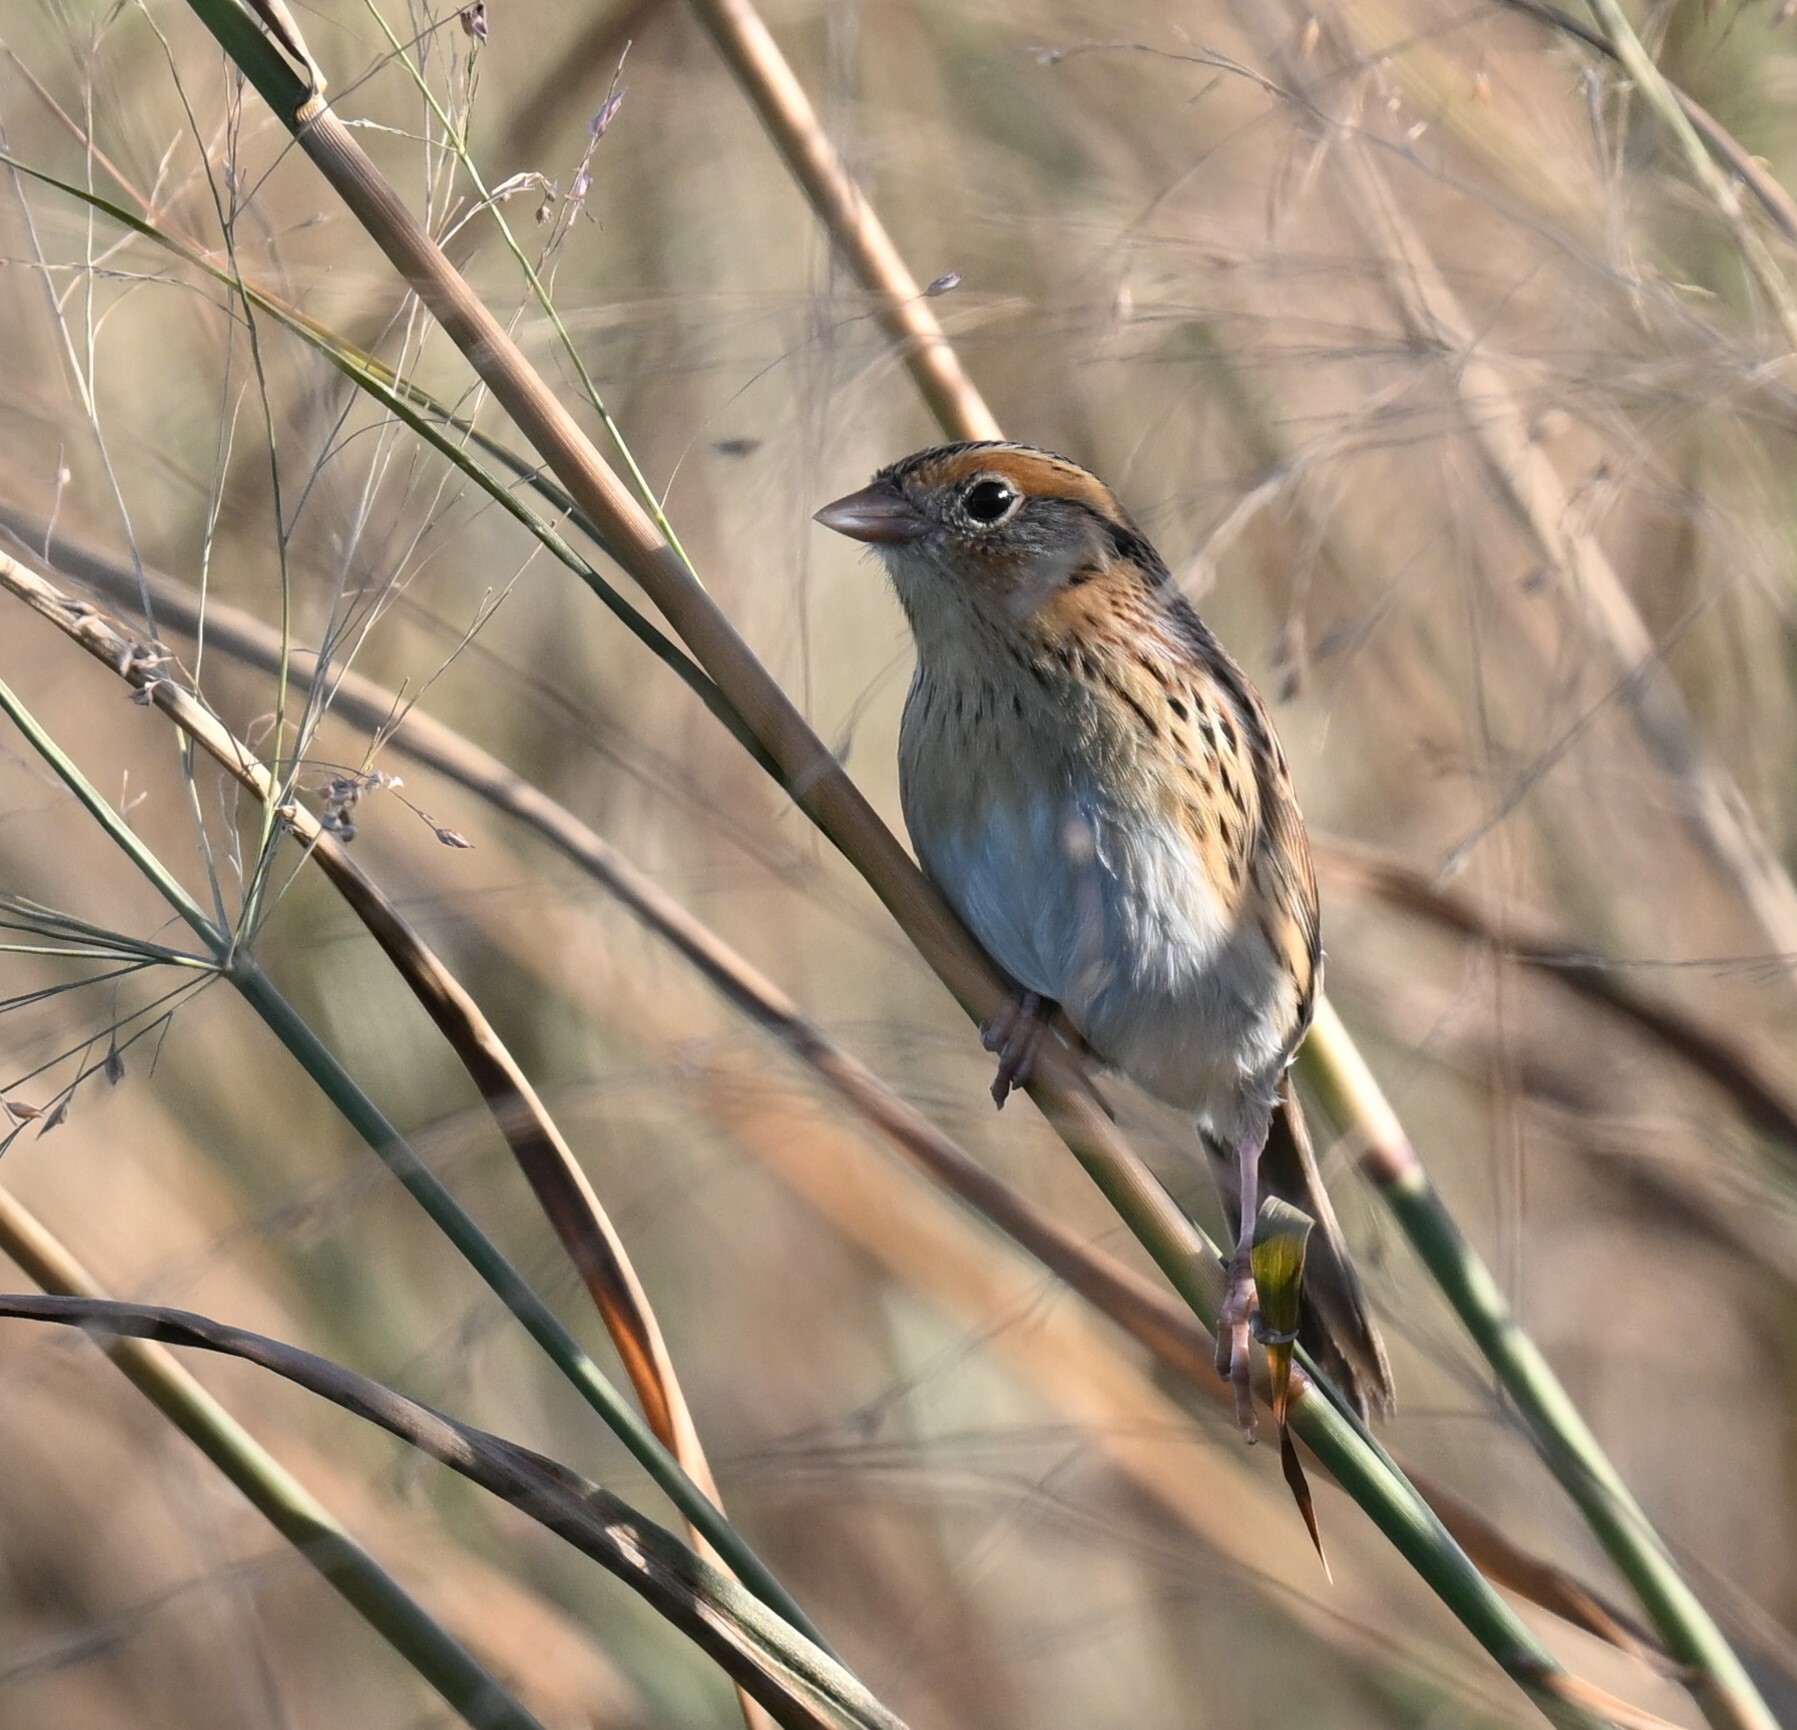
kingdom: Animalia
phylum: Chordata
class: Aves
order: Passeriformes
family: Passerellidae
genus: Ammospiza
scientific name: Ammospiza leconteii
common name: Le conte's sparrow
